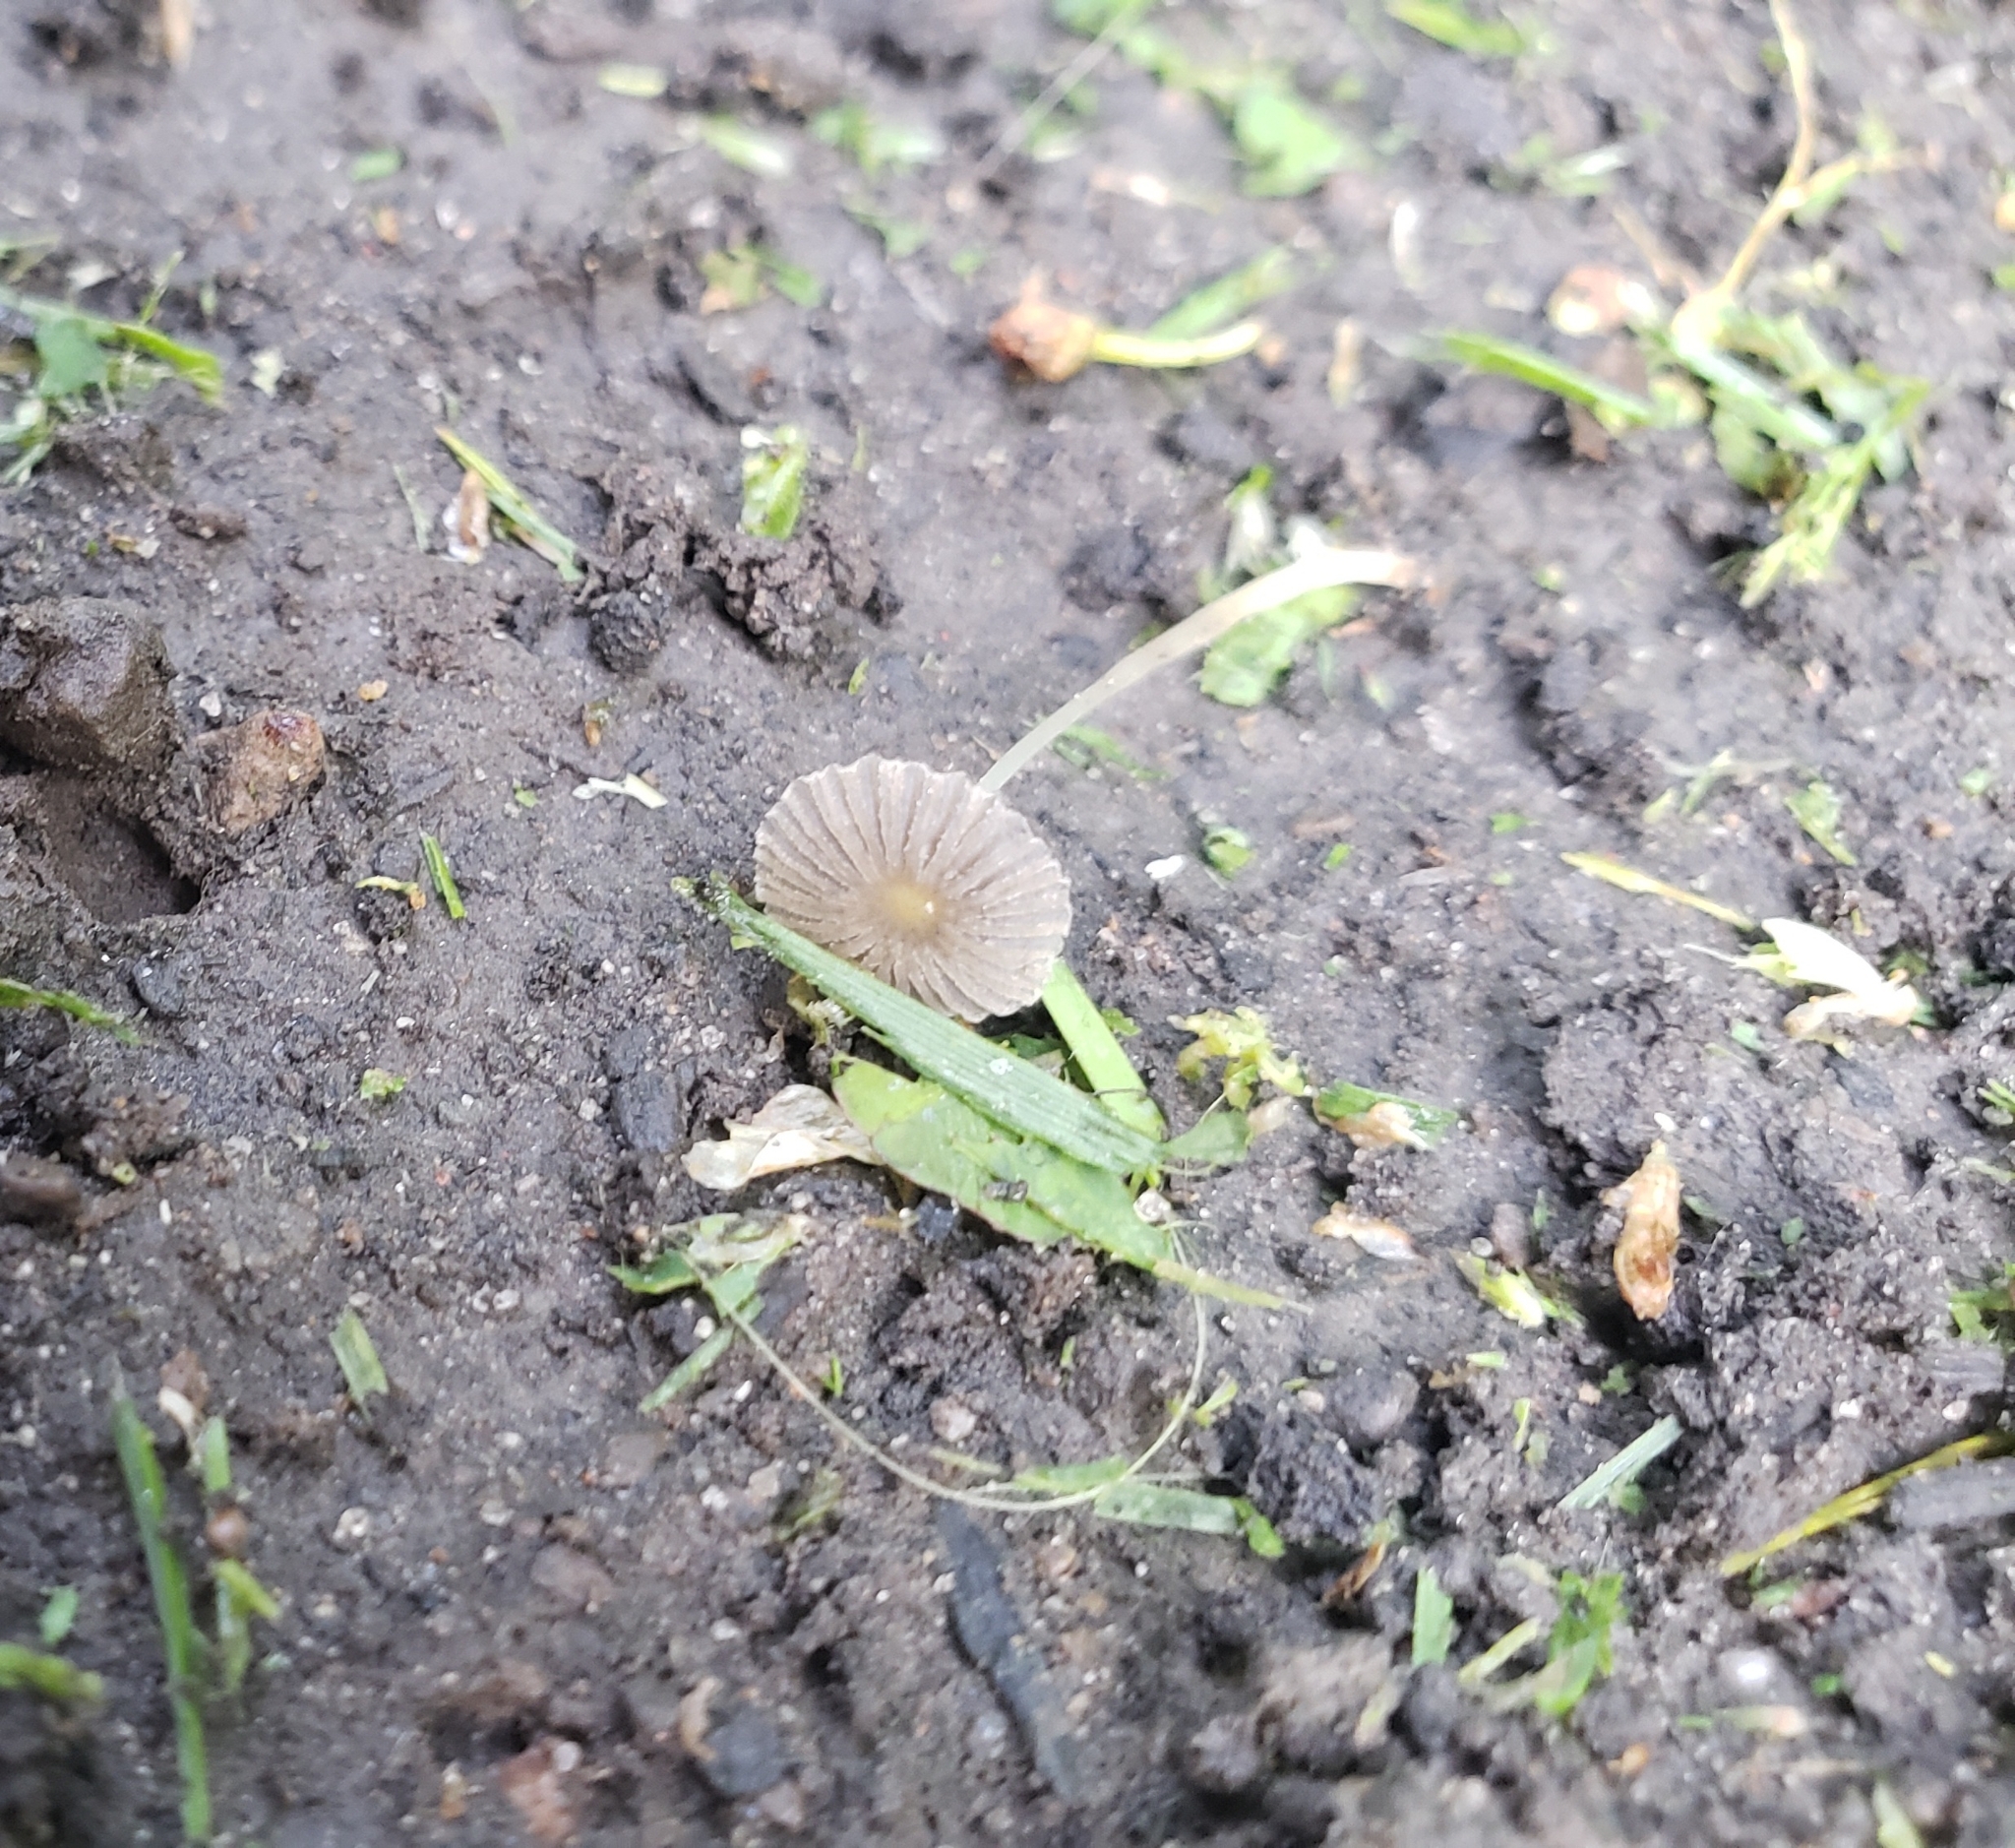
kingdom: Fungi
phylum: Basidiomycota
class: Agaricomycetes
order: Agaricales
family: Psathyrellaceae
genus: Parasola
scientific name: Parasola setulosa
